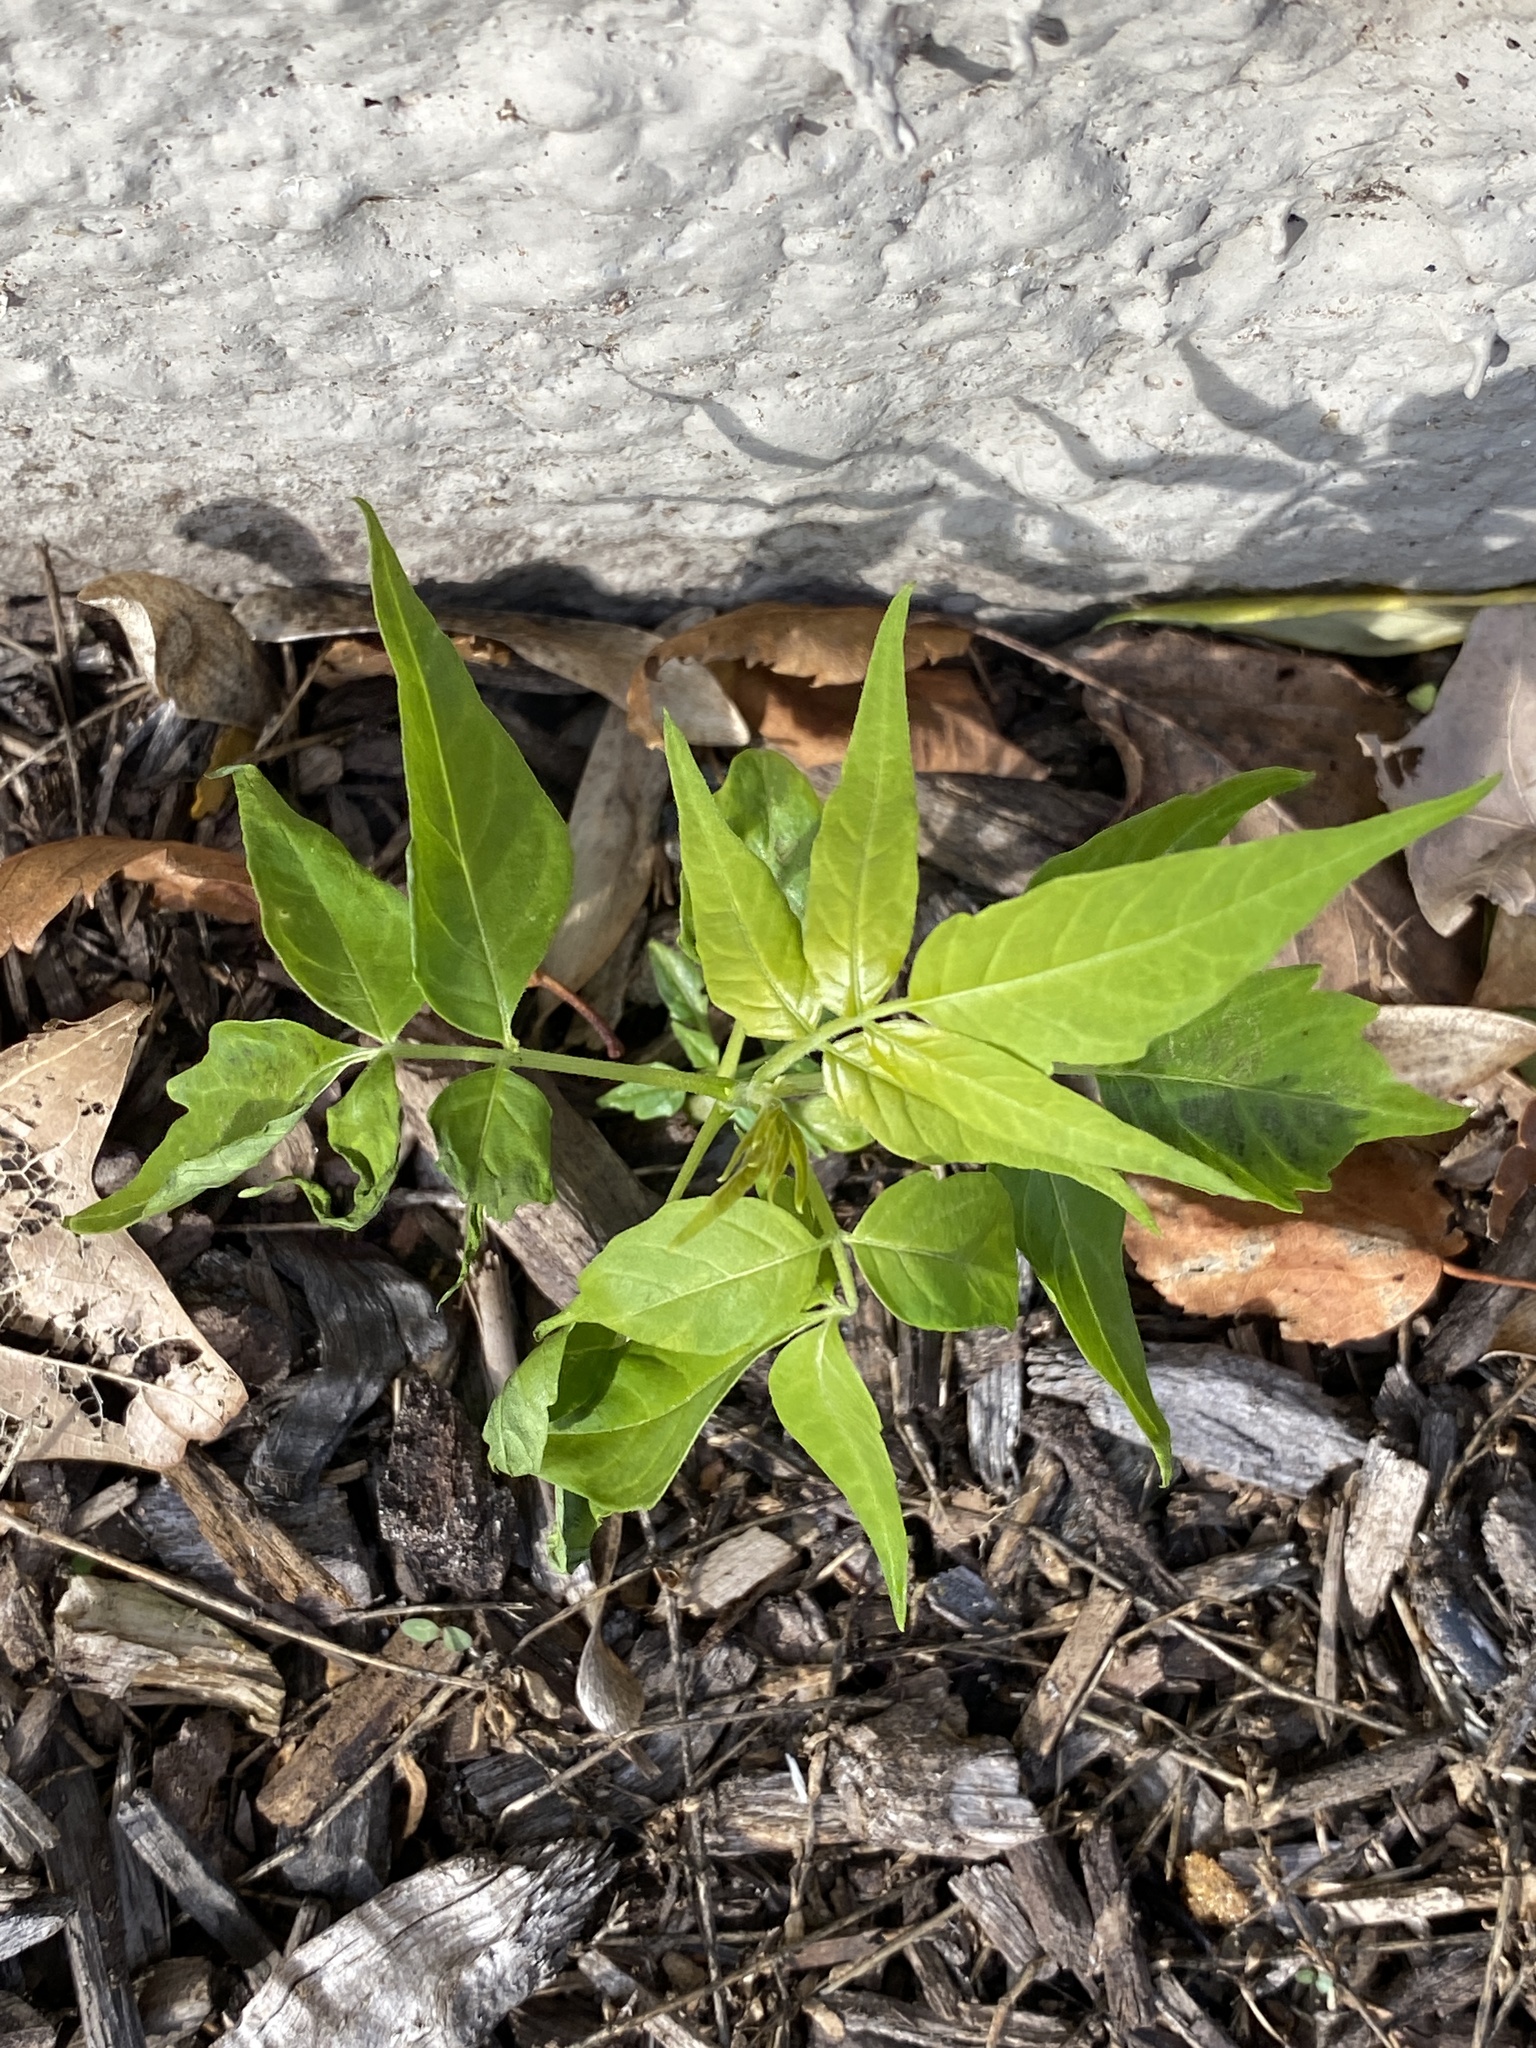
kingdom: Plantae
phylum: Tracheophyta
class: Magnoliopsida
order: Sapindales
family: Simaroubaceae
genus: Ailanthus
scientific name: Ailanthus altissima
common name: Tree-of-heaven
